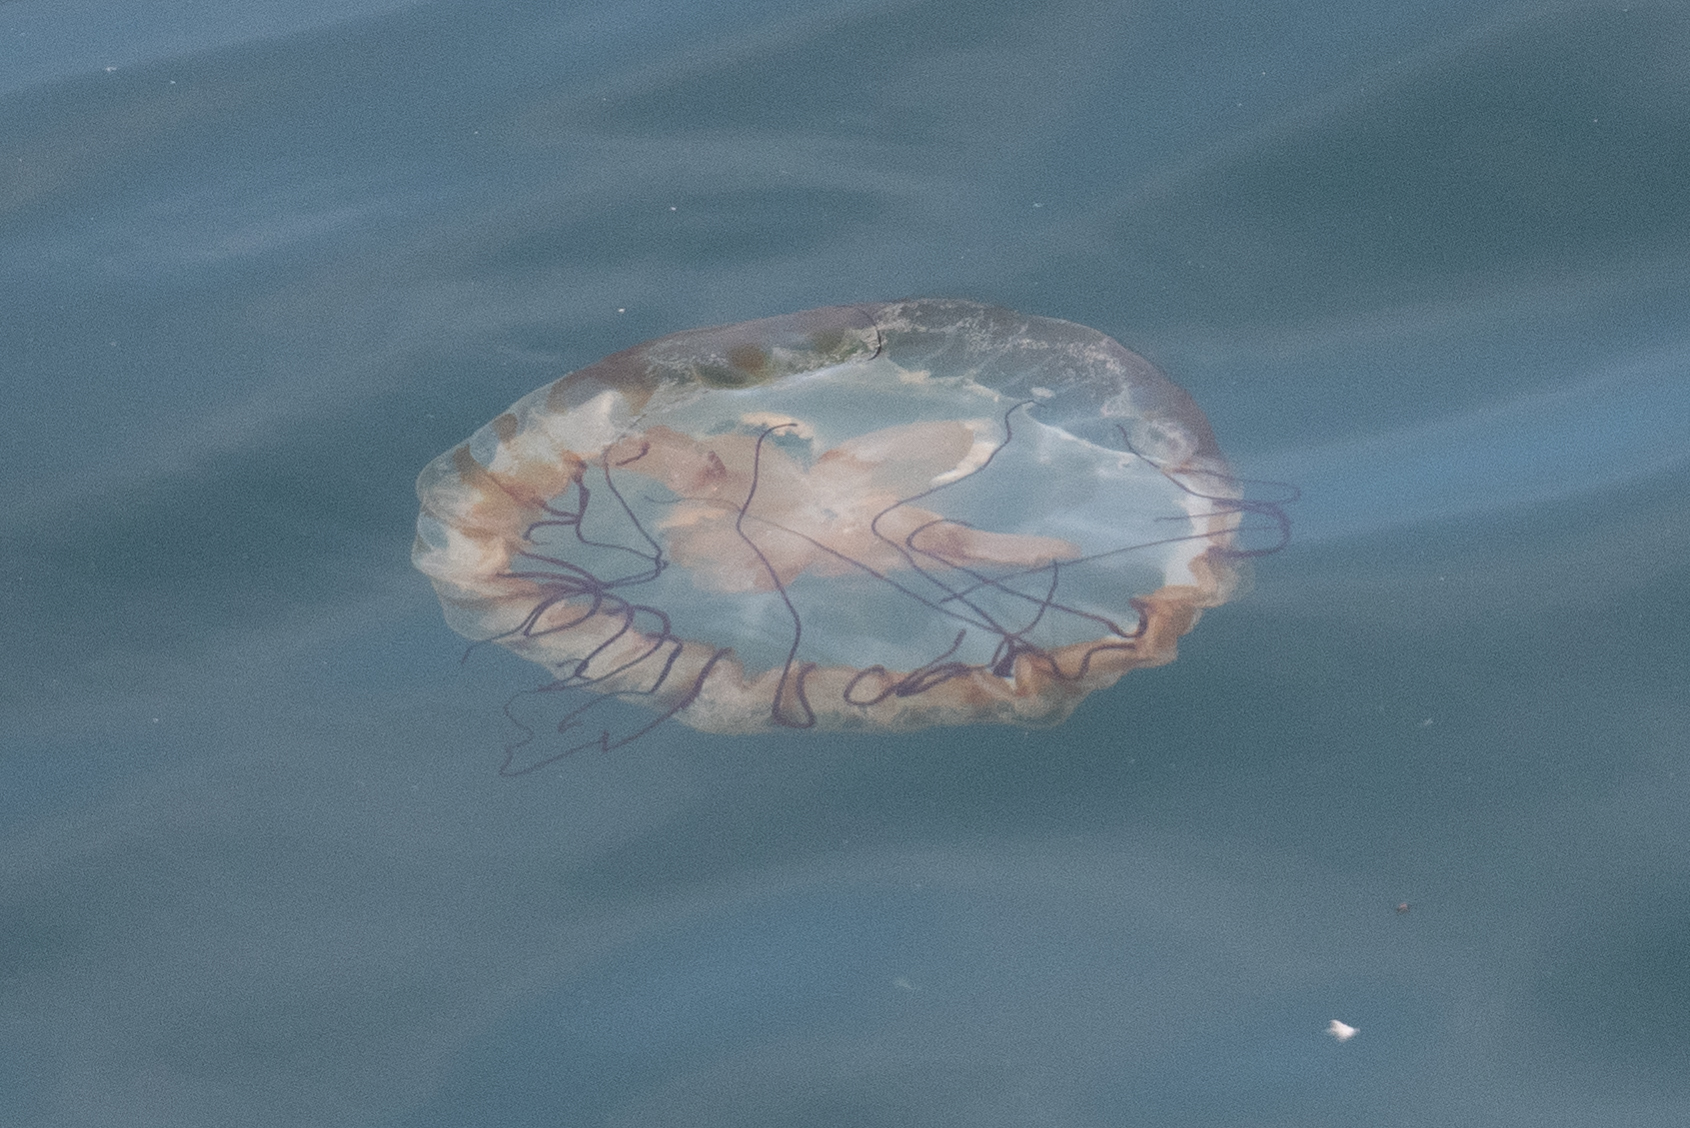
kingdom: Animalia
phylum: Cnidaria
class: Scyphozoa
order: Semaeostomeae
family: Pelagiidae
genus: Chrysaora
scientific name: Chrysaora fuscescens
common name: Sea nettle
